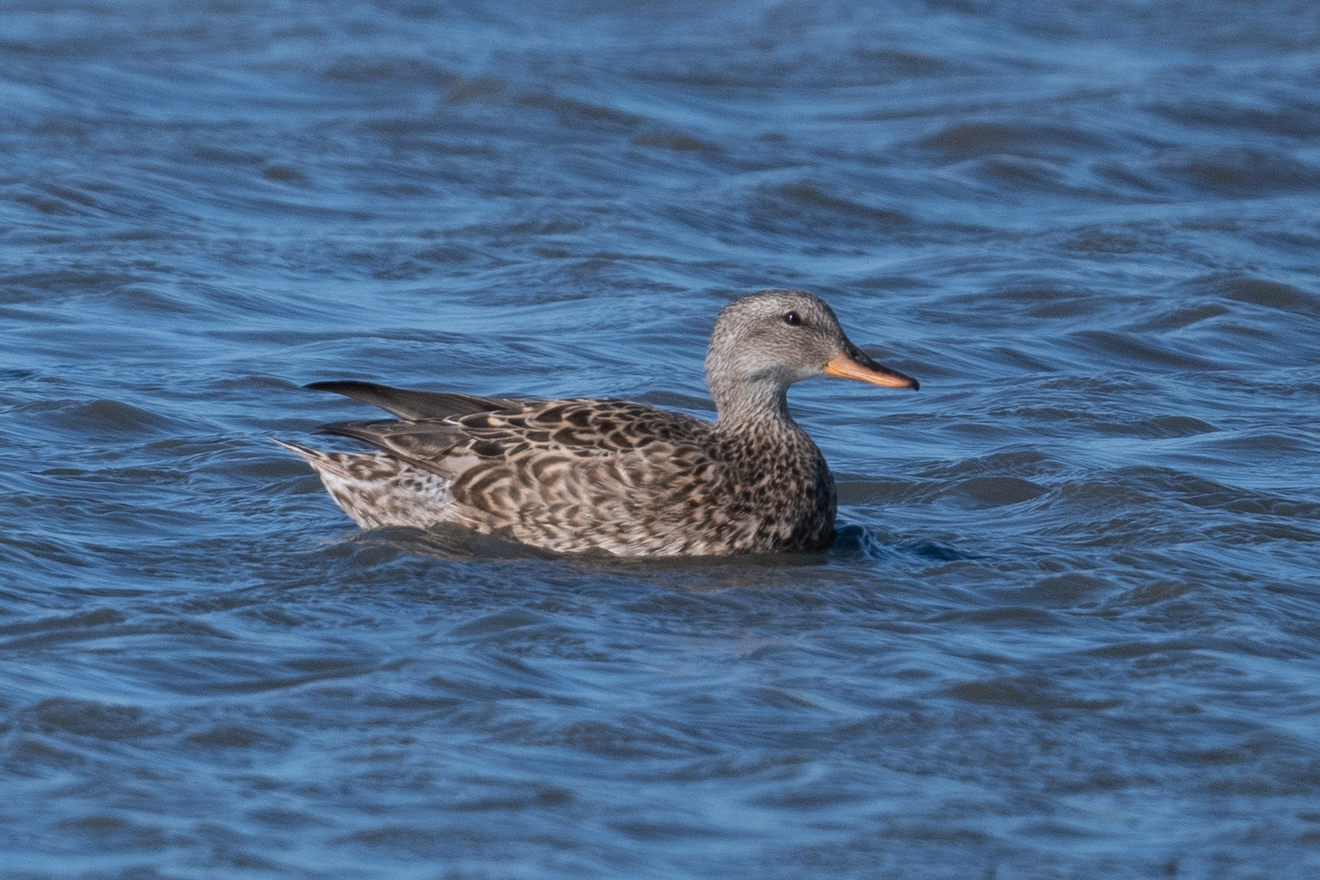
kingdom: Animalia
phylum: Chordata
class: Aves
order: Anseriformes
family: Anatidae
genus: Mareca
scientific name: Mareca strepera
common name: Gadwall
